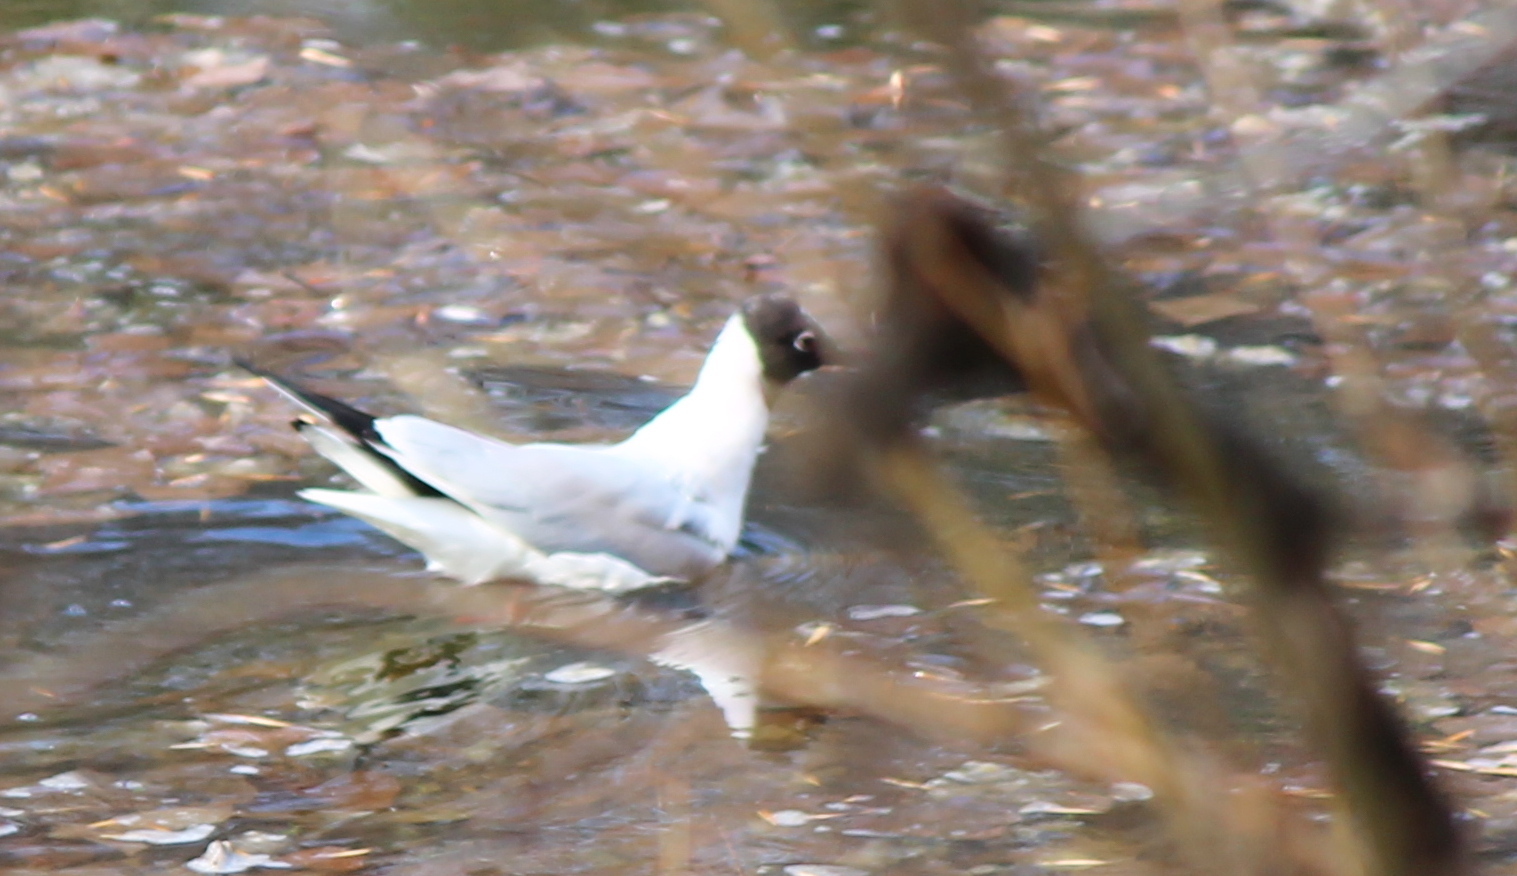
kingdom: Animalia
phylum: Chordata
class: Aves
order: Charadriiformes
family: Laridae
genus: Chroicocephalus
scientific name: Chroicocephalus ridibundus
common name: Black-headed gull
